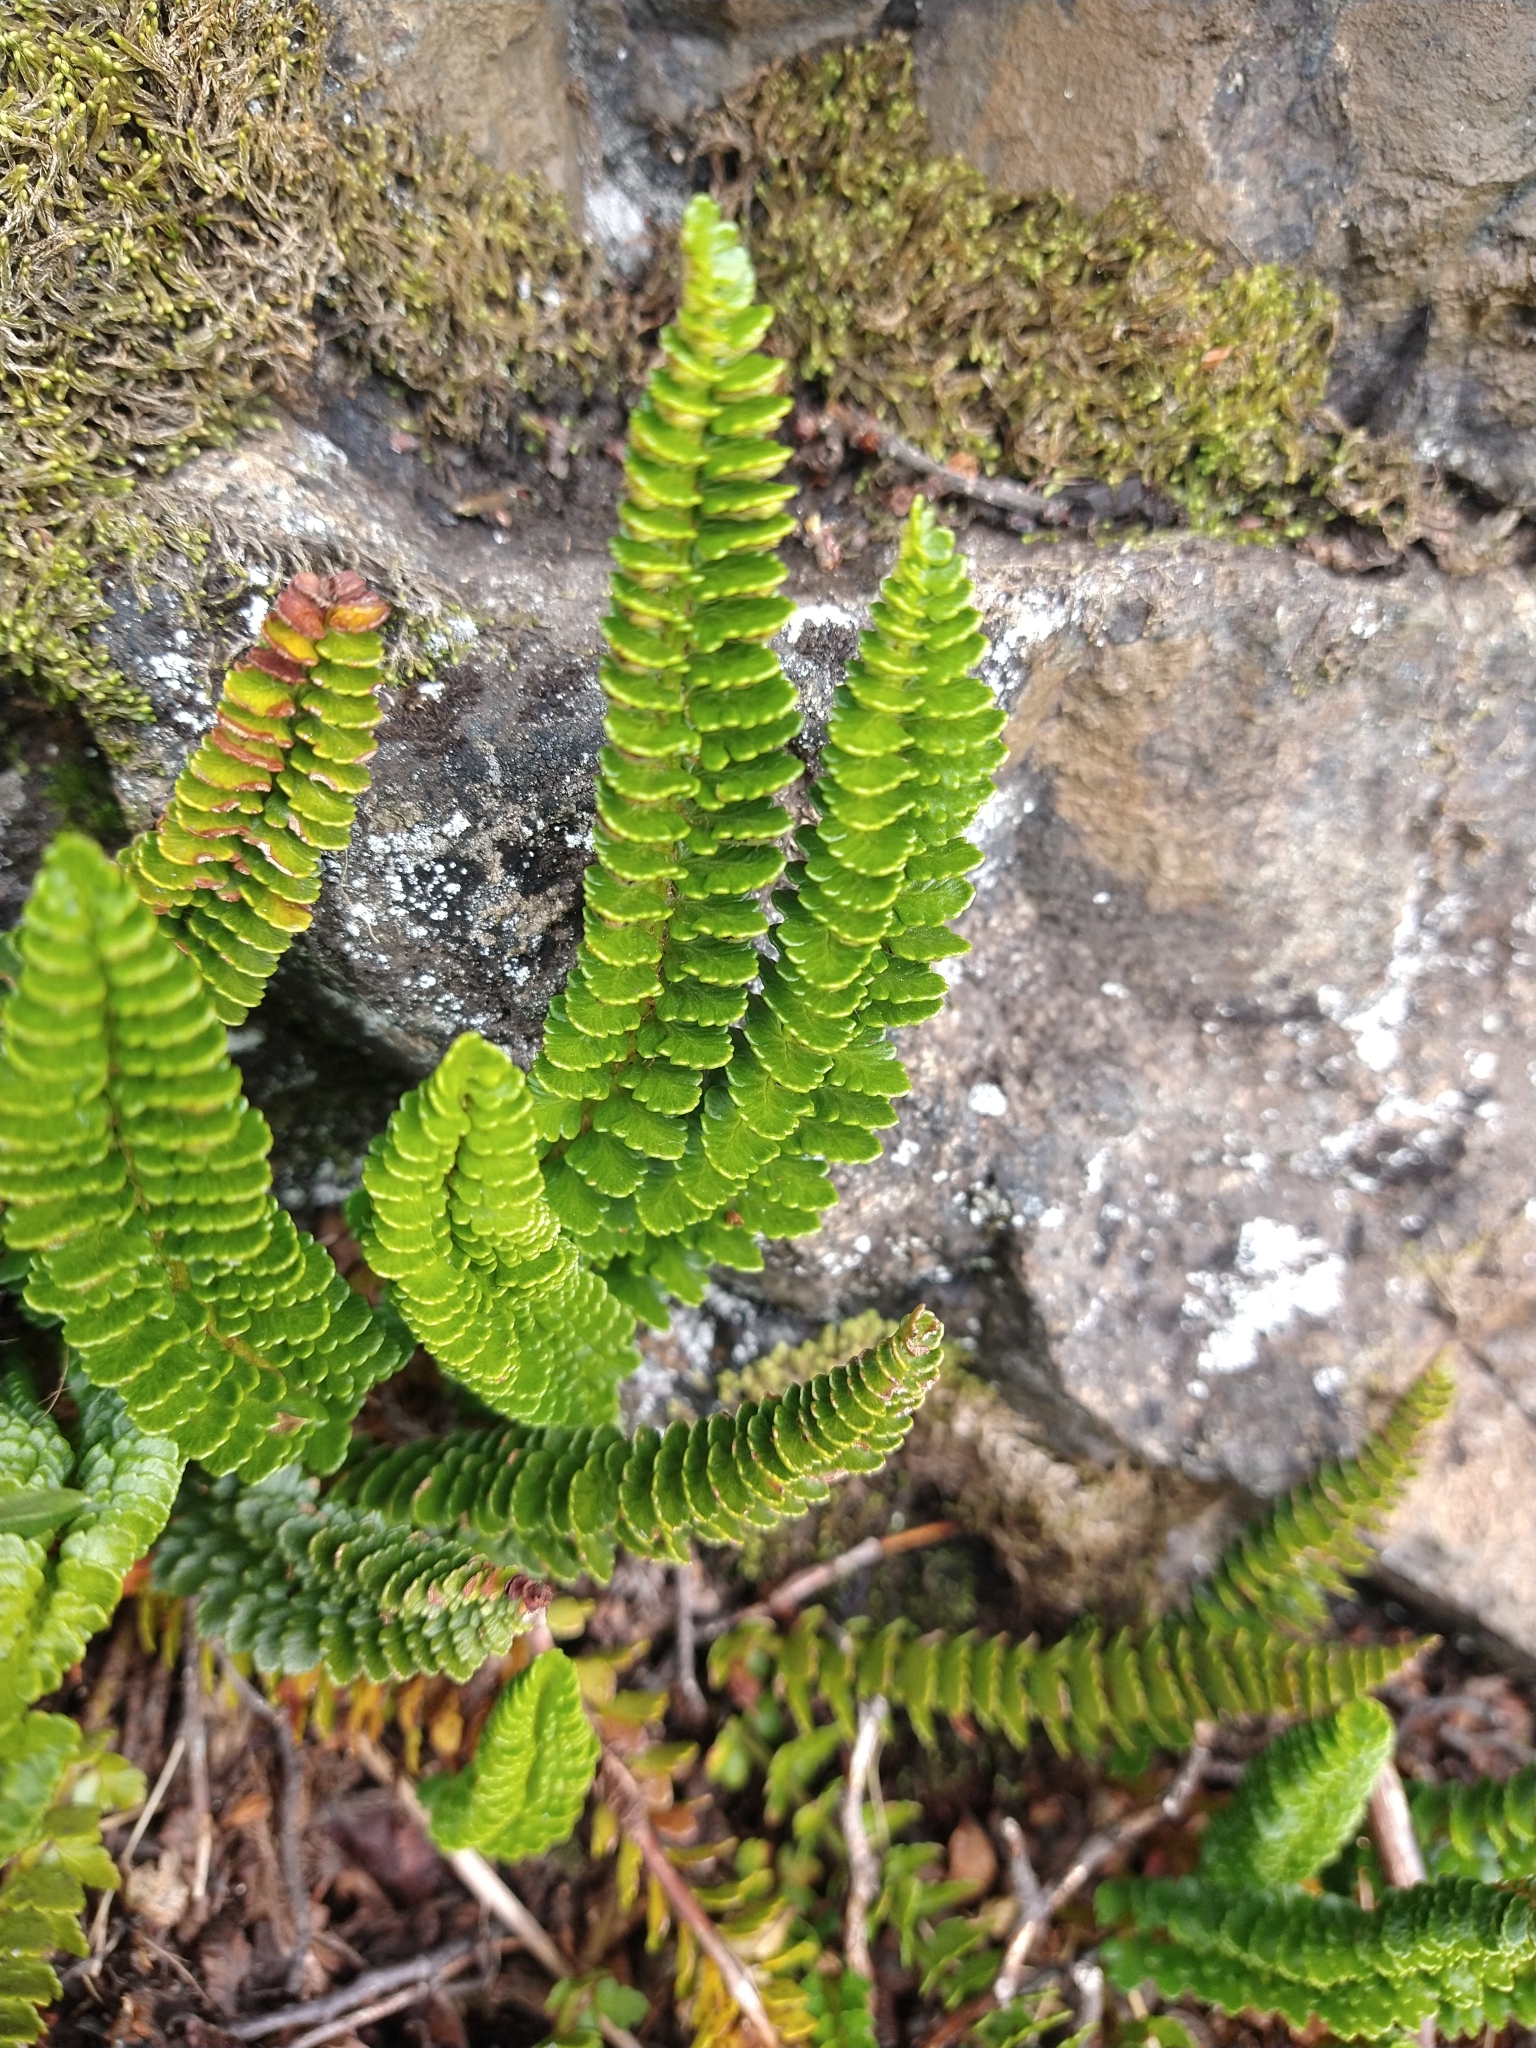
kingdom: Plantae
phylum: Tracheophyta
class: Polypodiopsida
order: Polypodiales
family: Dryopteridaceae
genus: Polystichum
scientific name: Polystichum andinum
